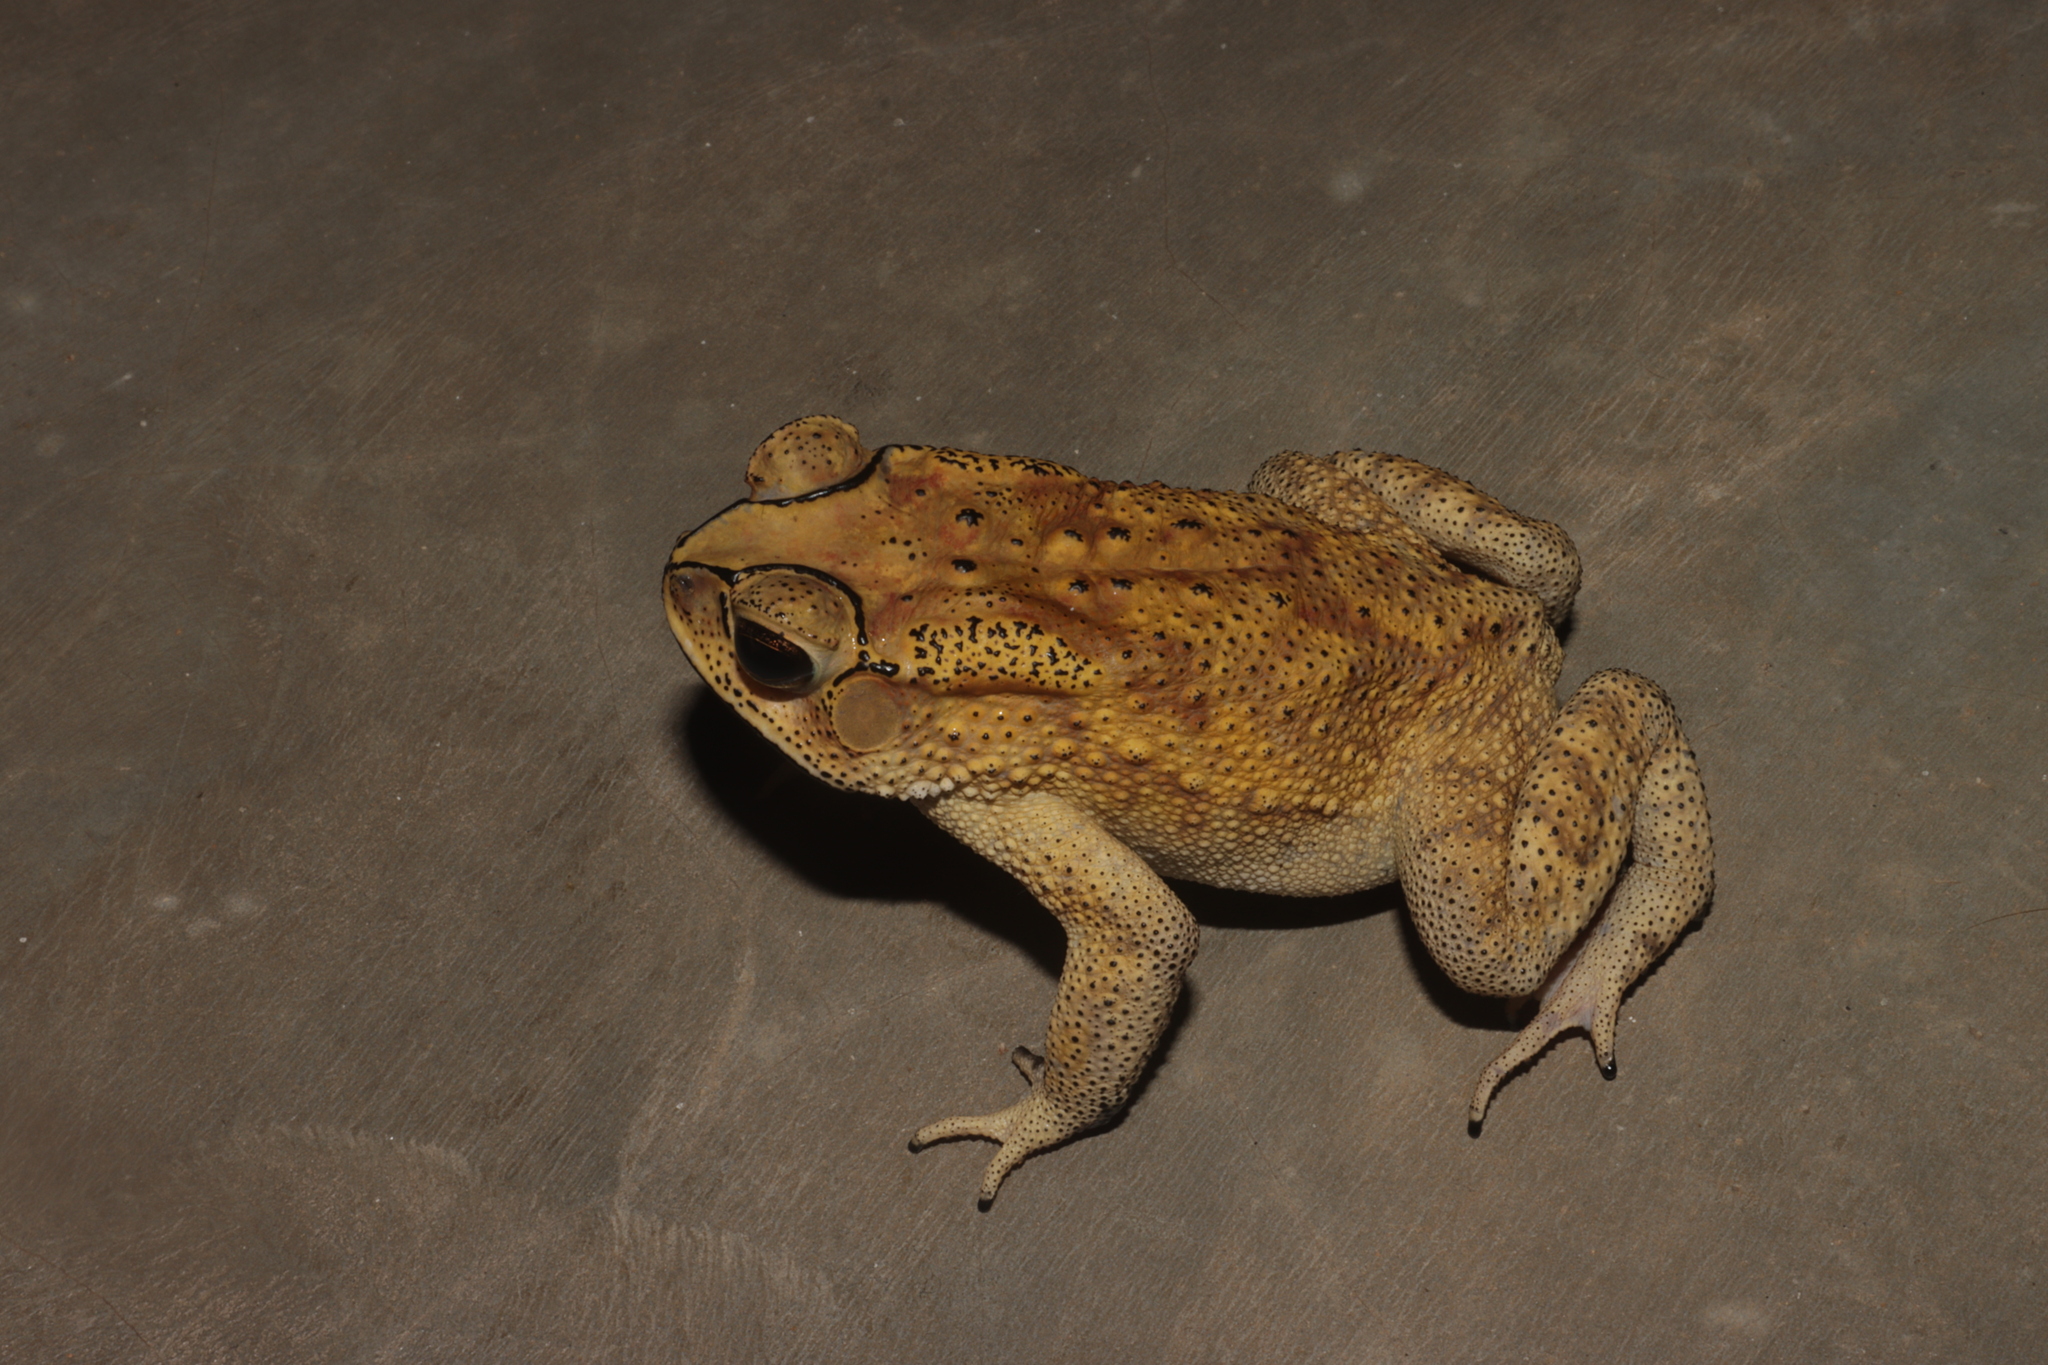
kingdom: Animalia
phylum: Chordata
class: Amphibia
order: Anura
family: Bufonidae
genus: Duttaphrynus
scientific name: Duttaphrynus melanostictus
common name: Common sunda toad
